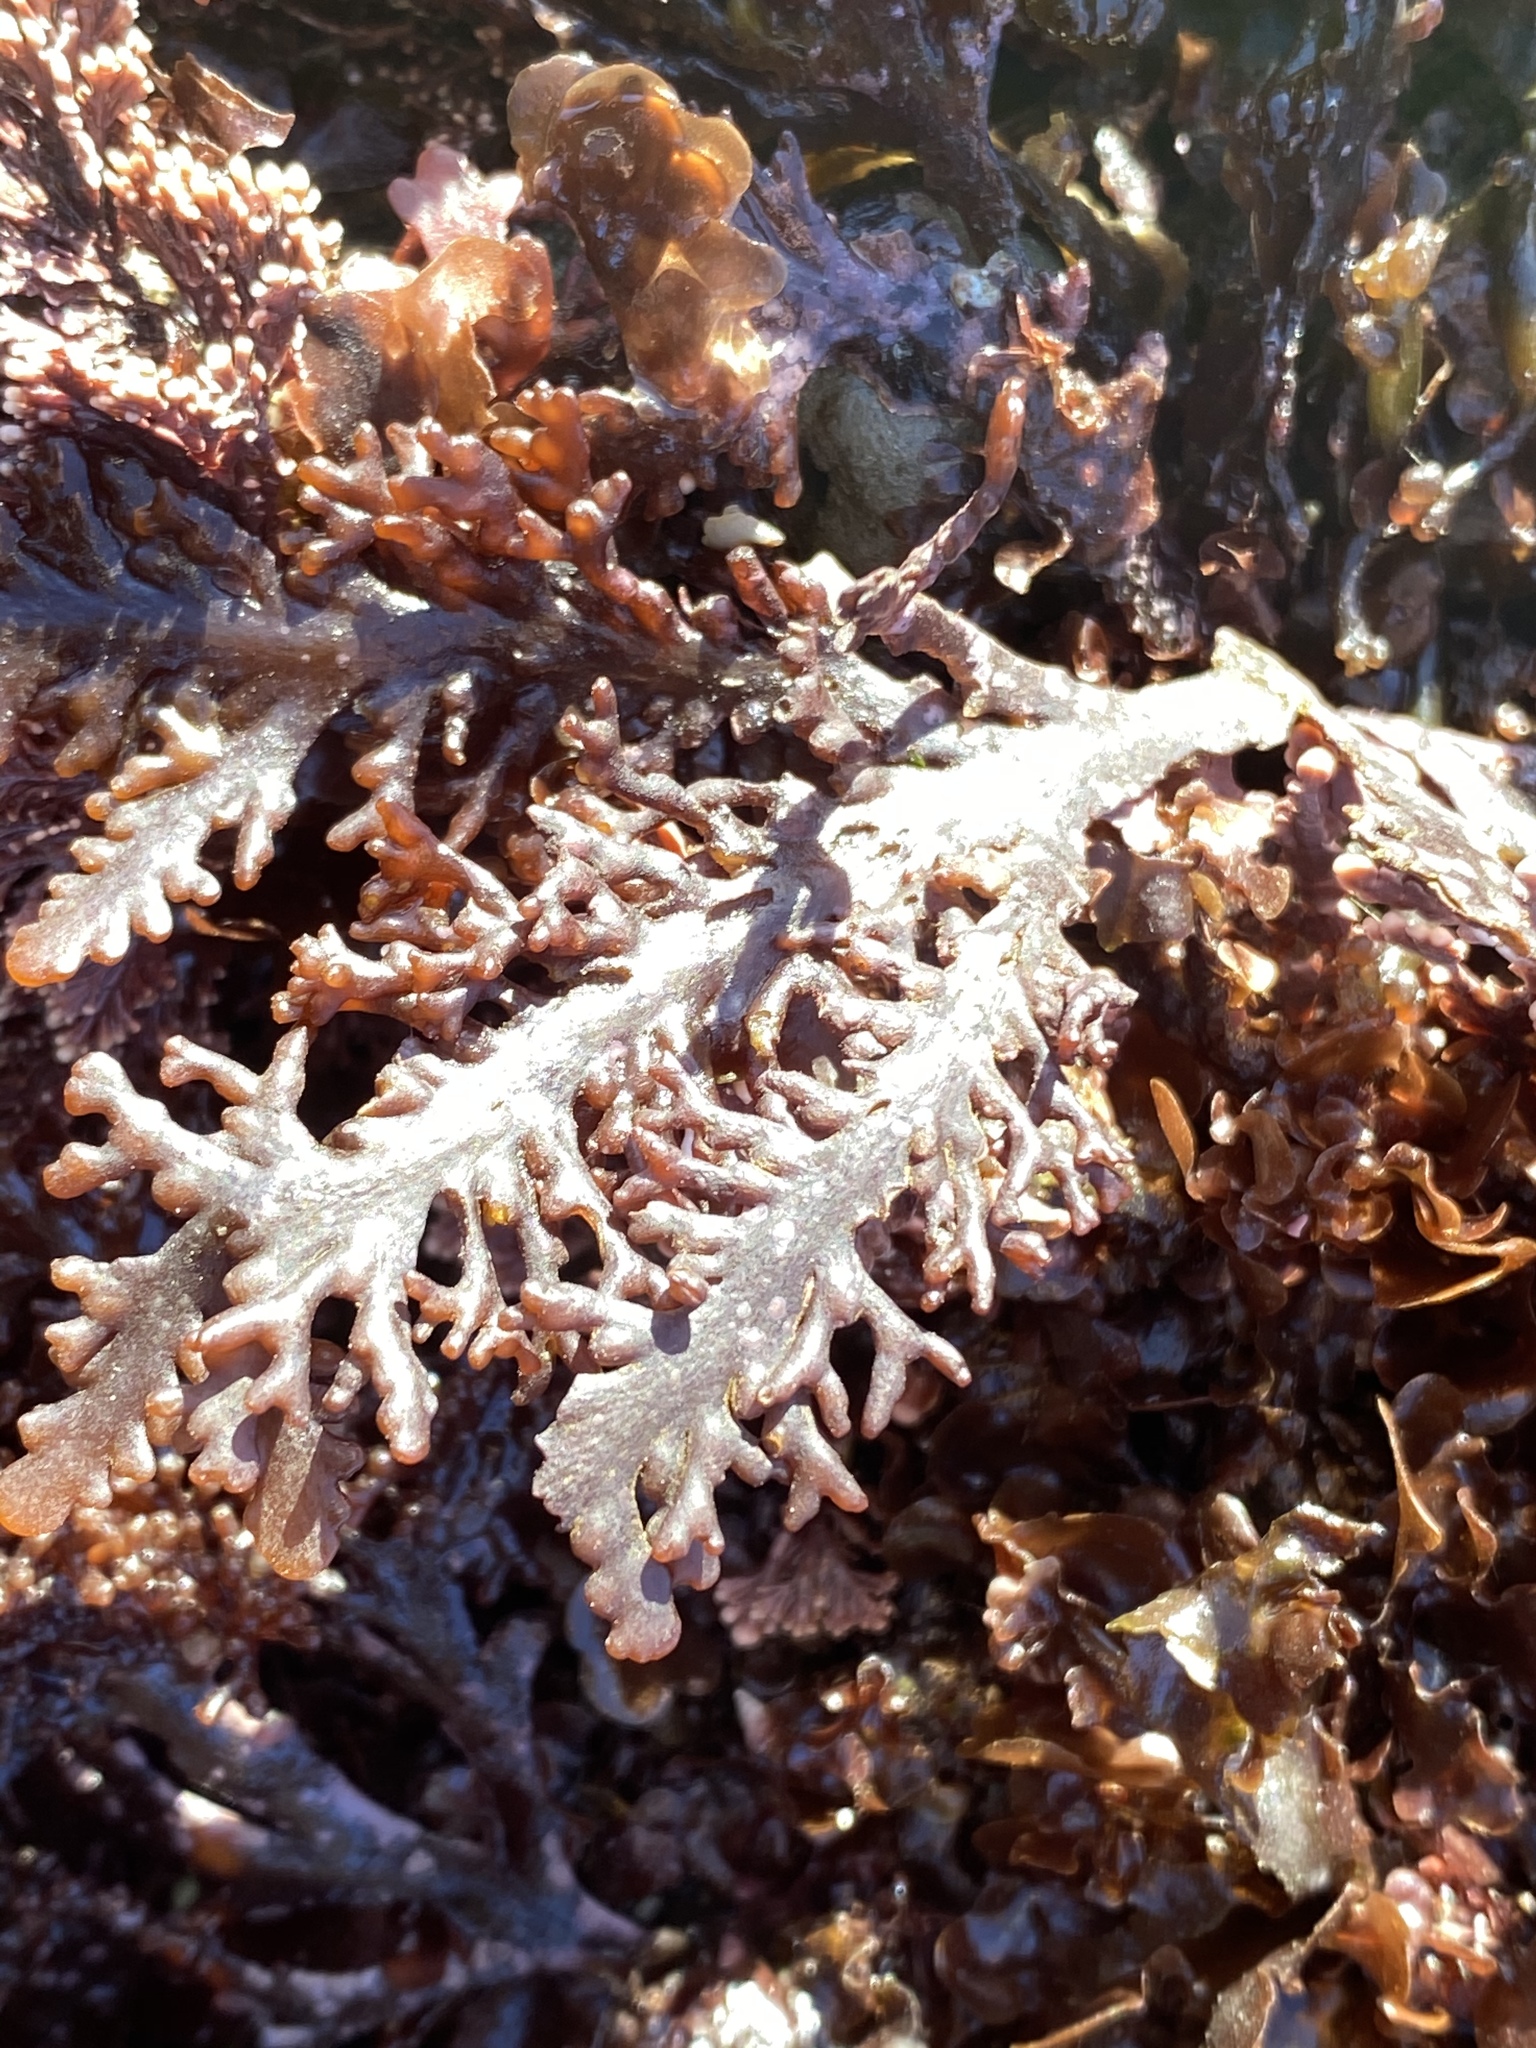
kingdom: Plantae
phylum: Rhodophyta
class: Florideophyceae
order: Ceramiales
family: Rhodomelaceae
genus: Osmundea
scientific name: Osmundea spectabilis
